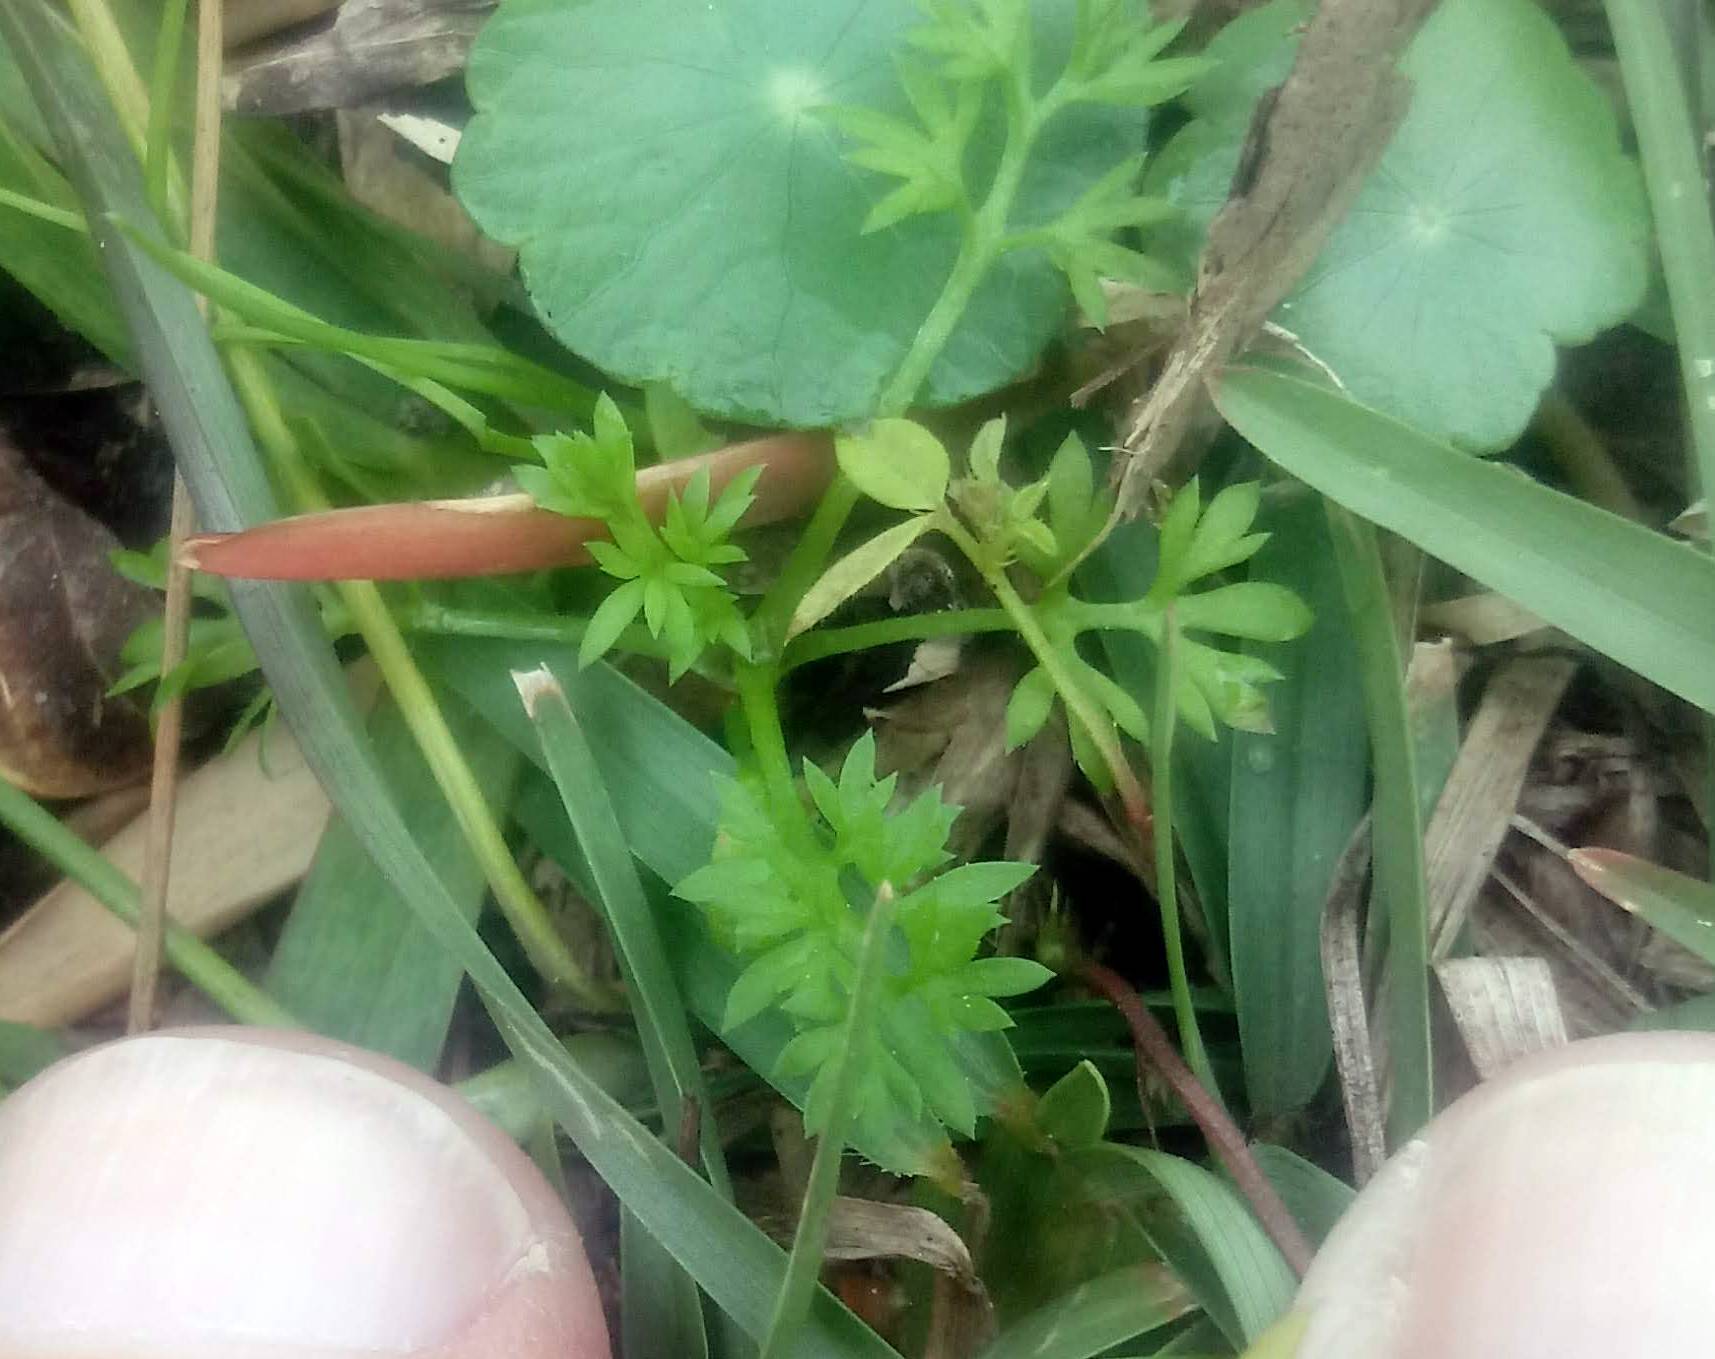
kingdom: Plantae
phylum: Tracheophyta
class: Magnoliopsida
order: Asterales
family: Asteraceae
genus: Soliva
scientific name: Soliva sessilis
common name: Field burrweed
